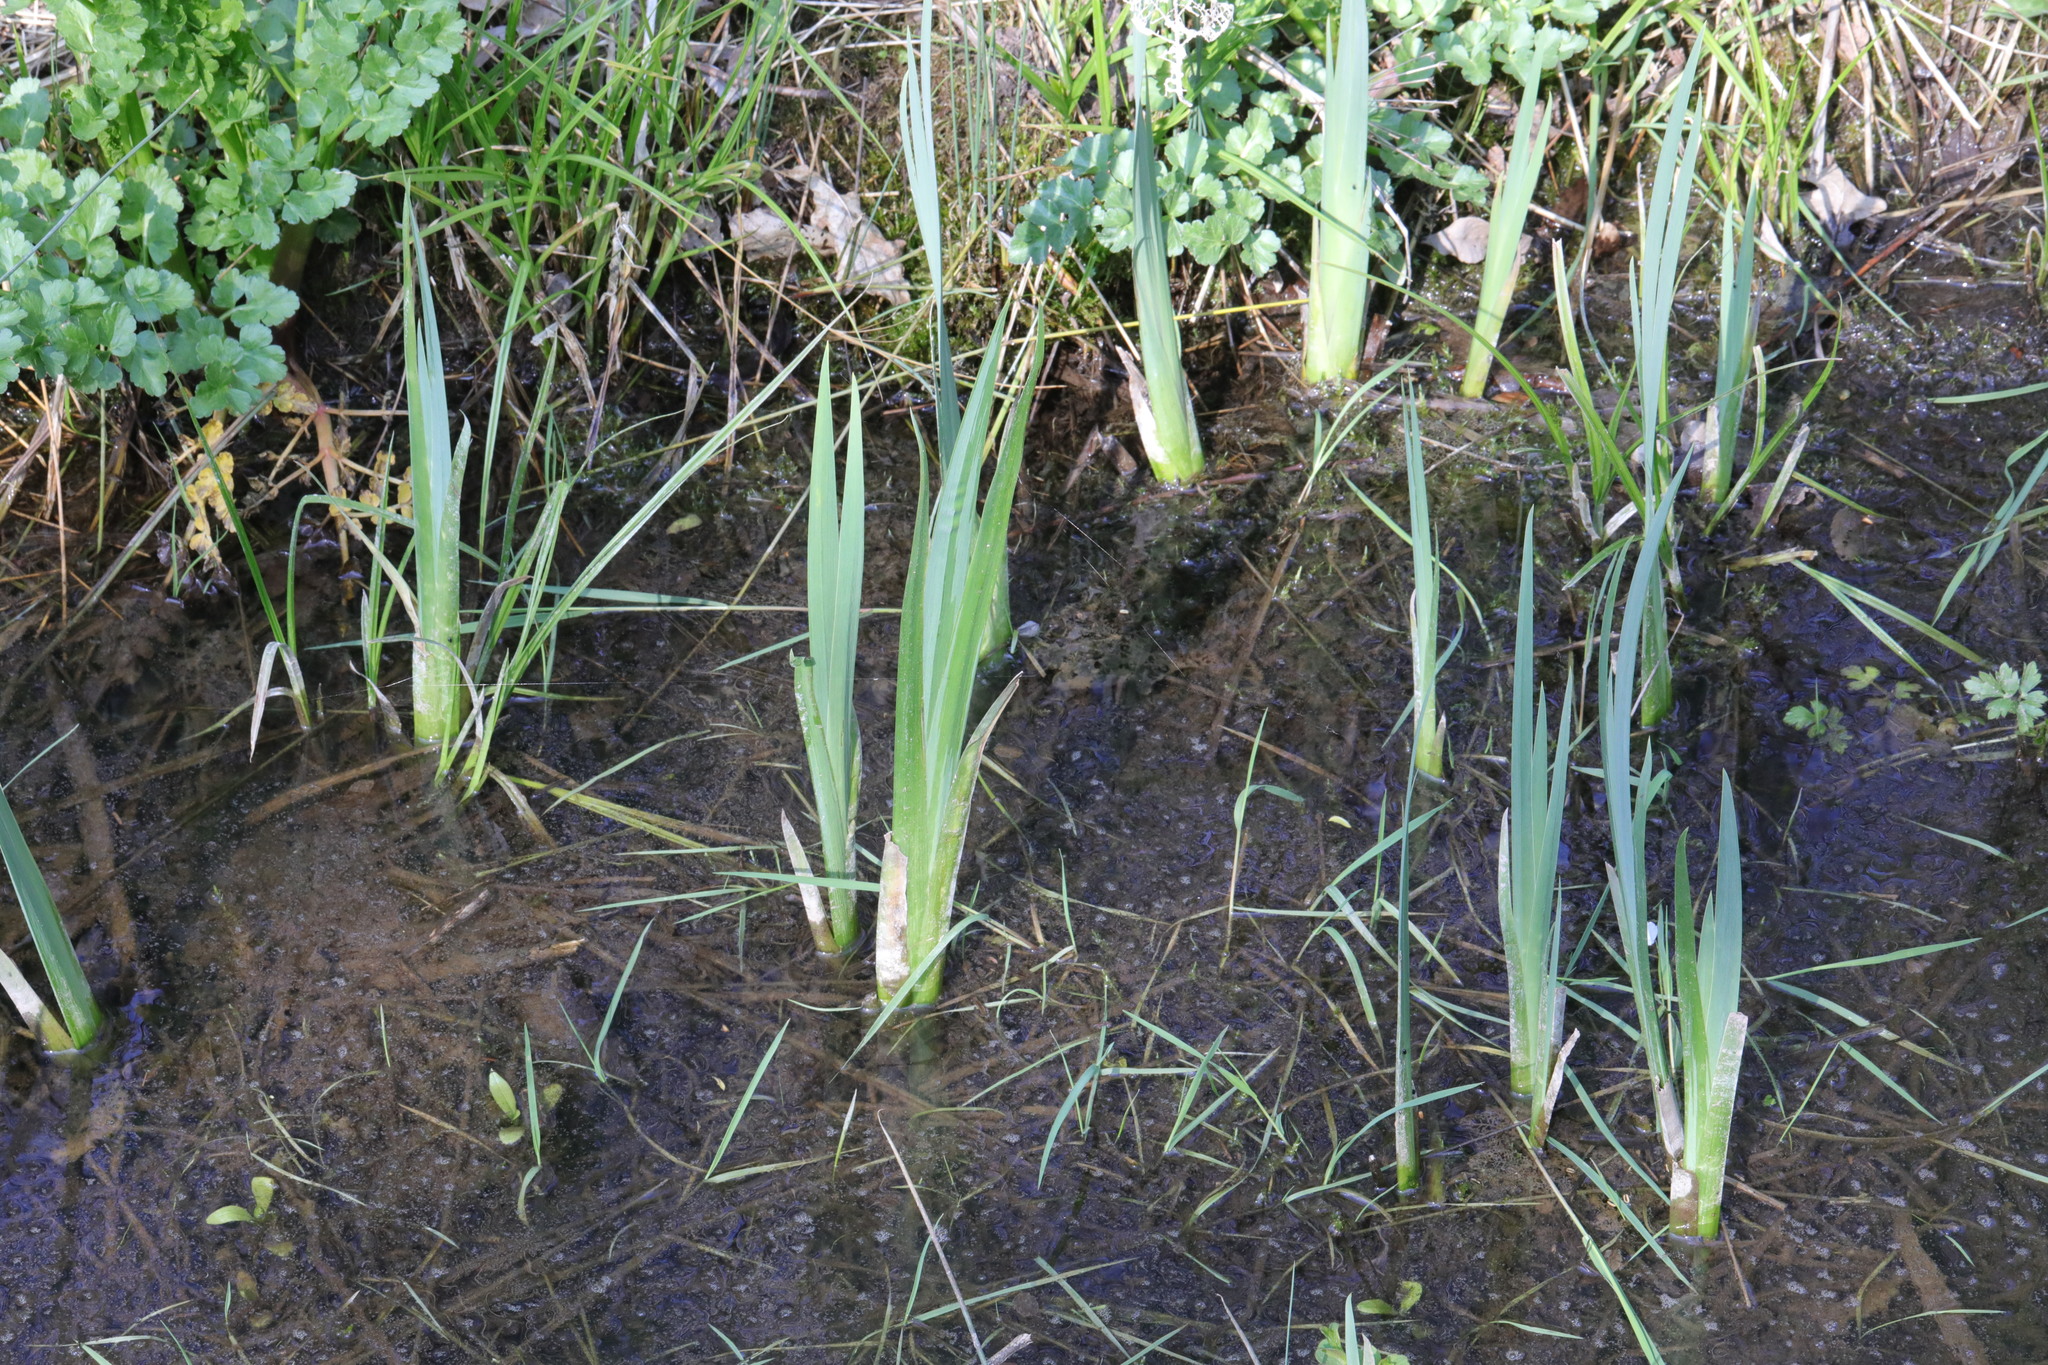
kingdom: Plantae
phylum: Tracheophyta
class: Liliopsida
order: Asparagales
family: Iridaceae
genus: Iris
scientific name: Iris pseudacorus
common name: Yellow flag
